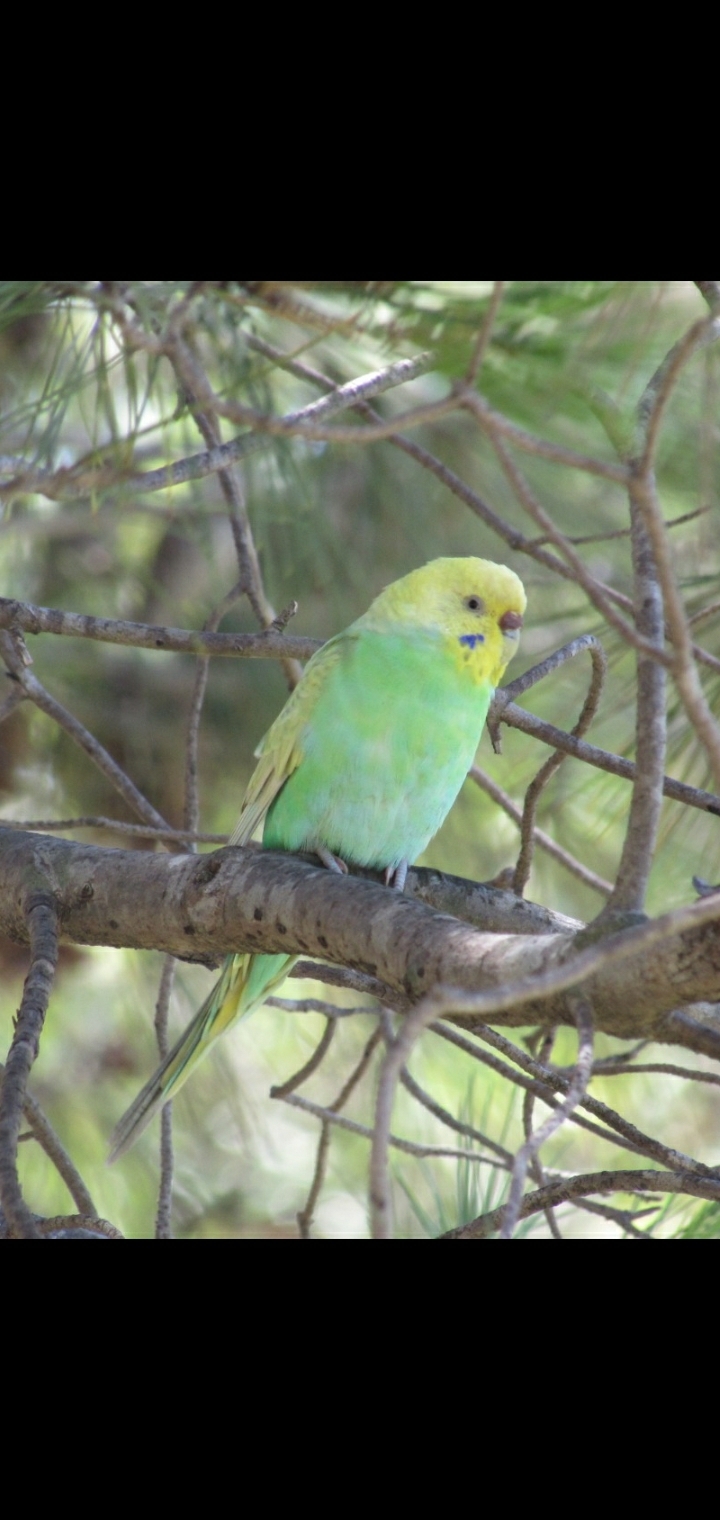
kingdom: Animalia
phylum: Chordata
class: Aves
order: Psittaciformes
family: Psittacidae
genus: Melopsittacus
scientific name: Melopsittacus undulatus
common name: Budgerigar
